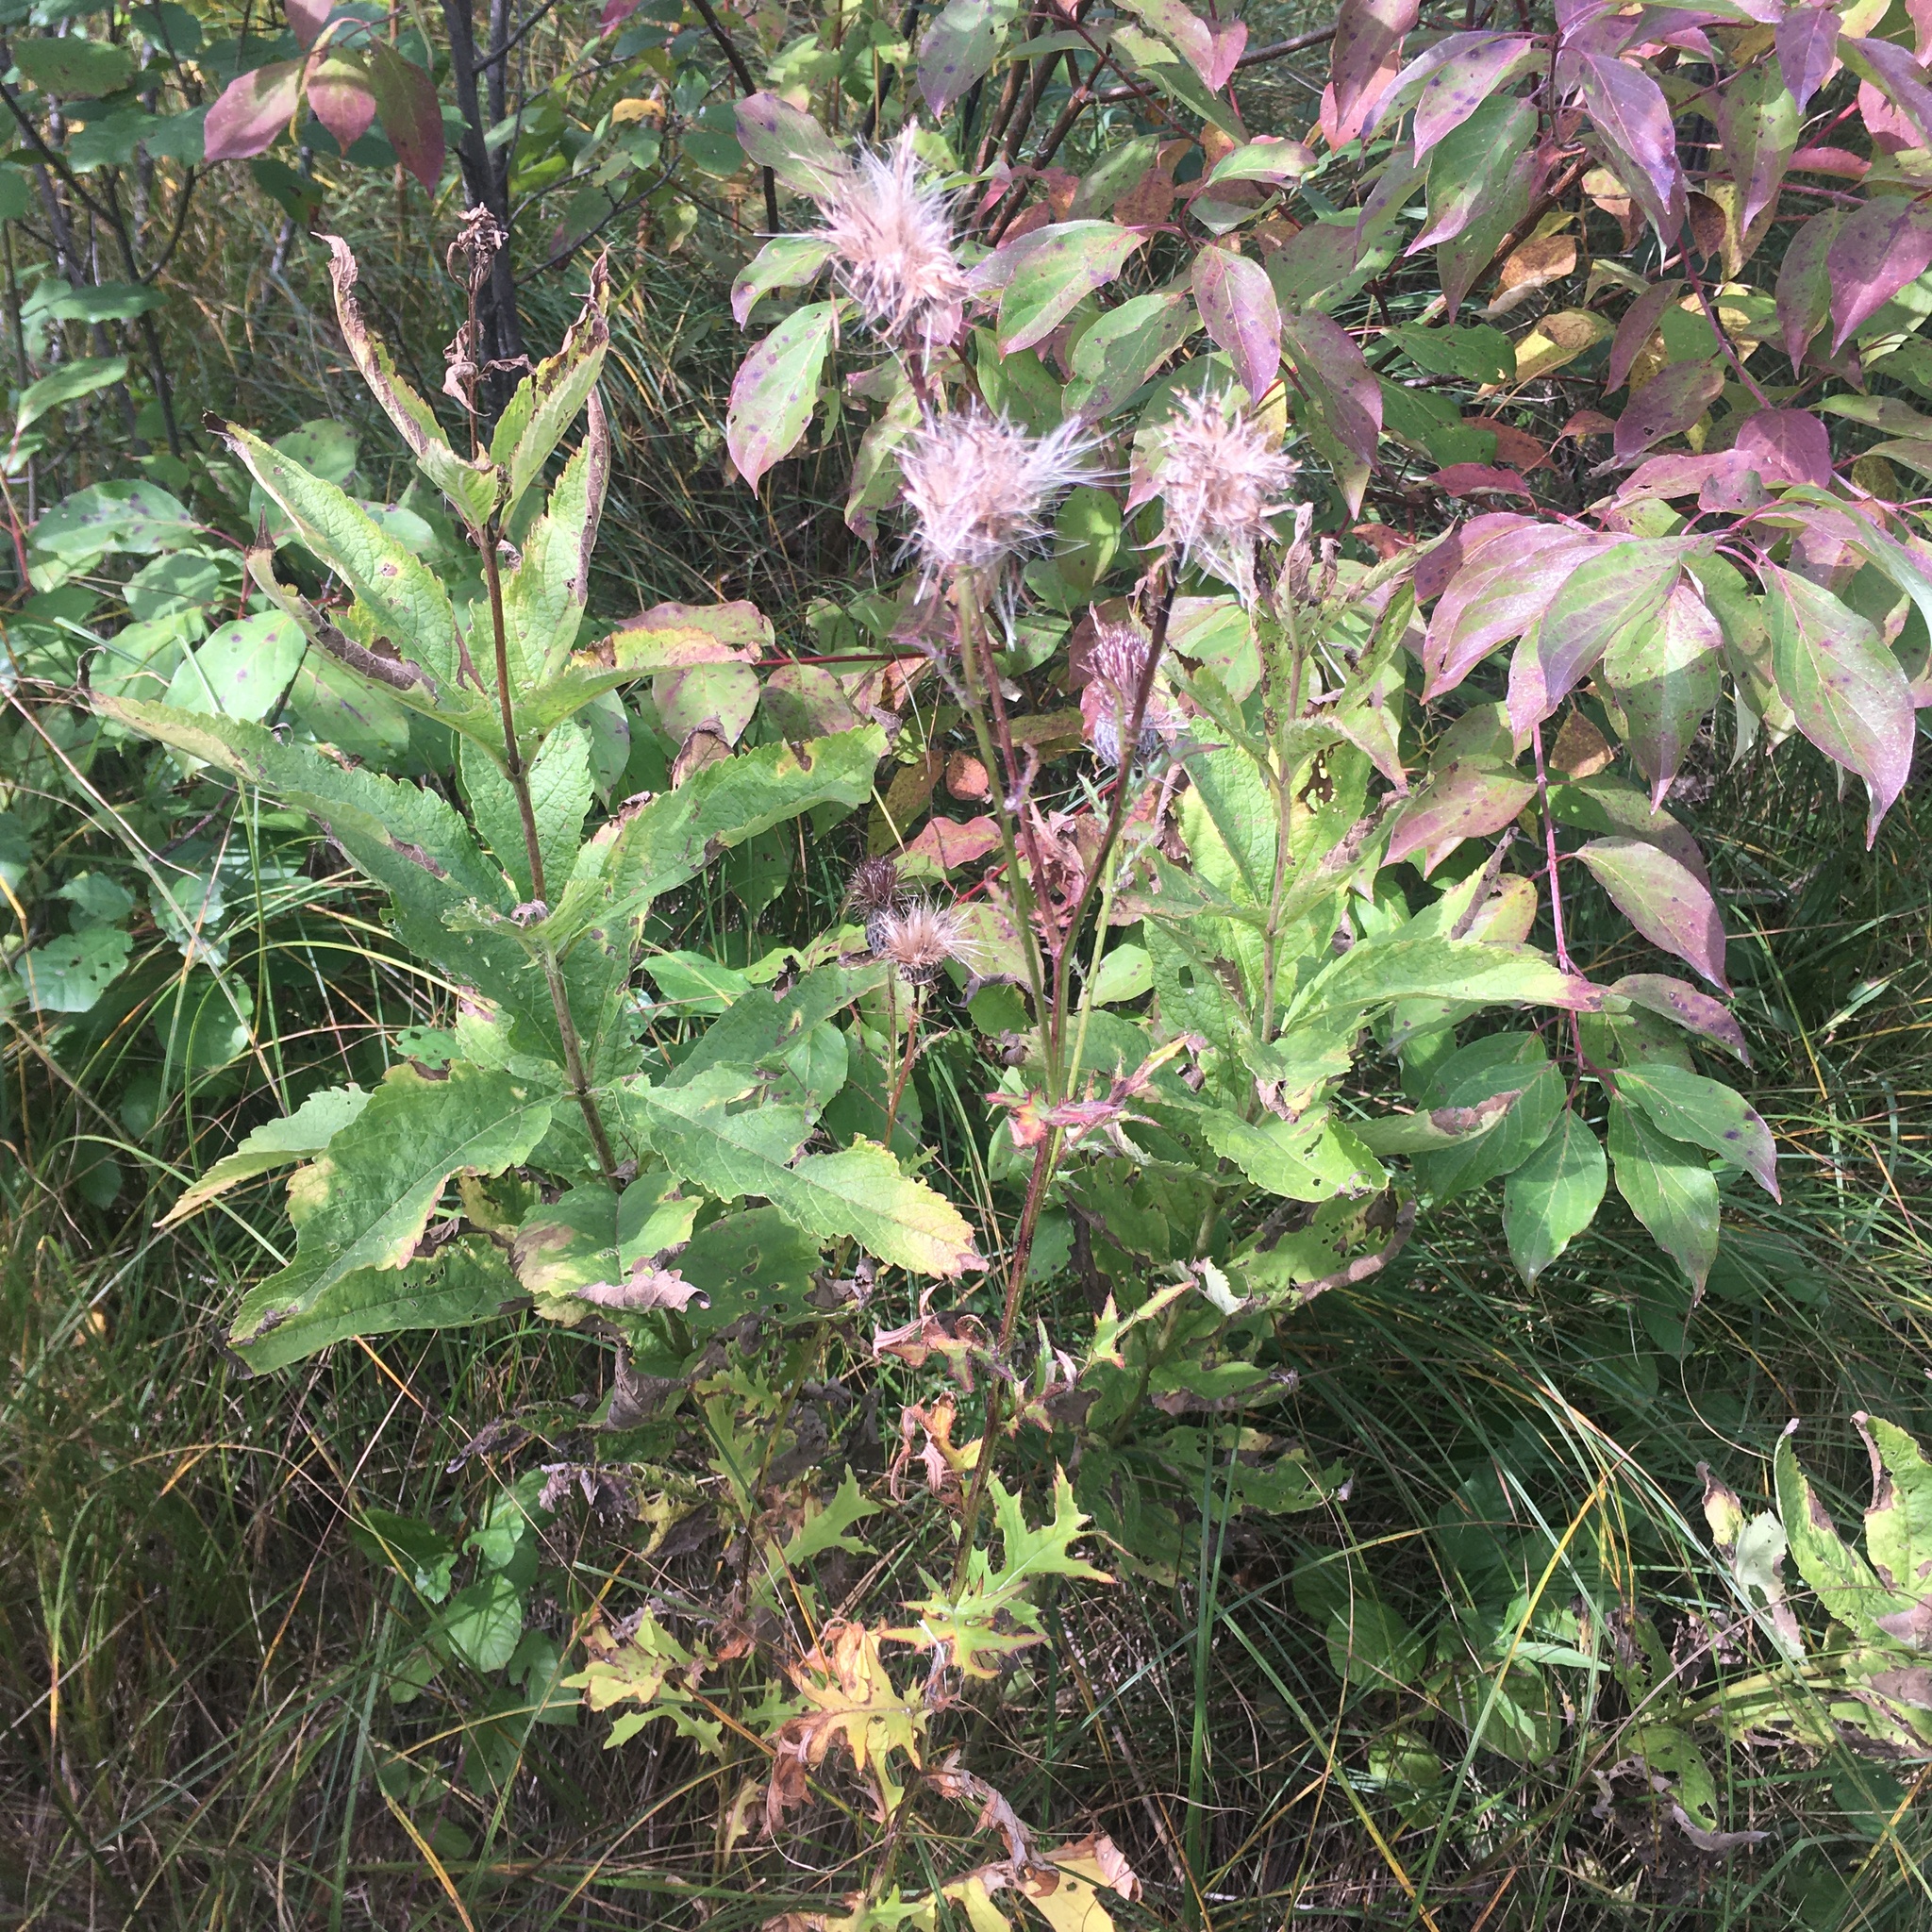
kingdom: Plantae
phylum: Tracheophyta
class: Magnoliopsida
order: Asterales
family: Asteraceae
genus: Eutrochium
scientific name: Eutrochium maculatum
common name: Spotted joe pye weed
